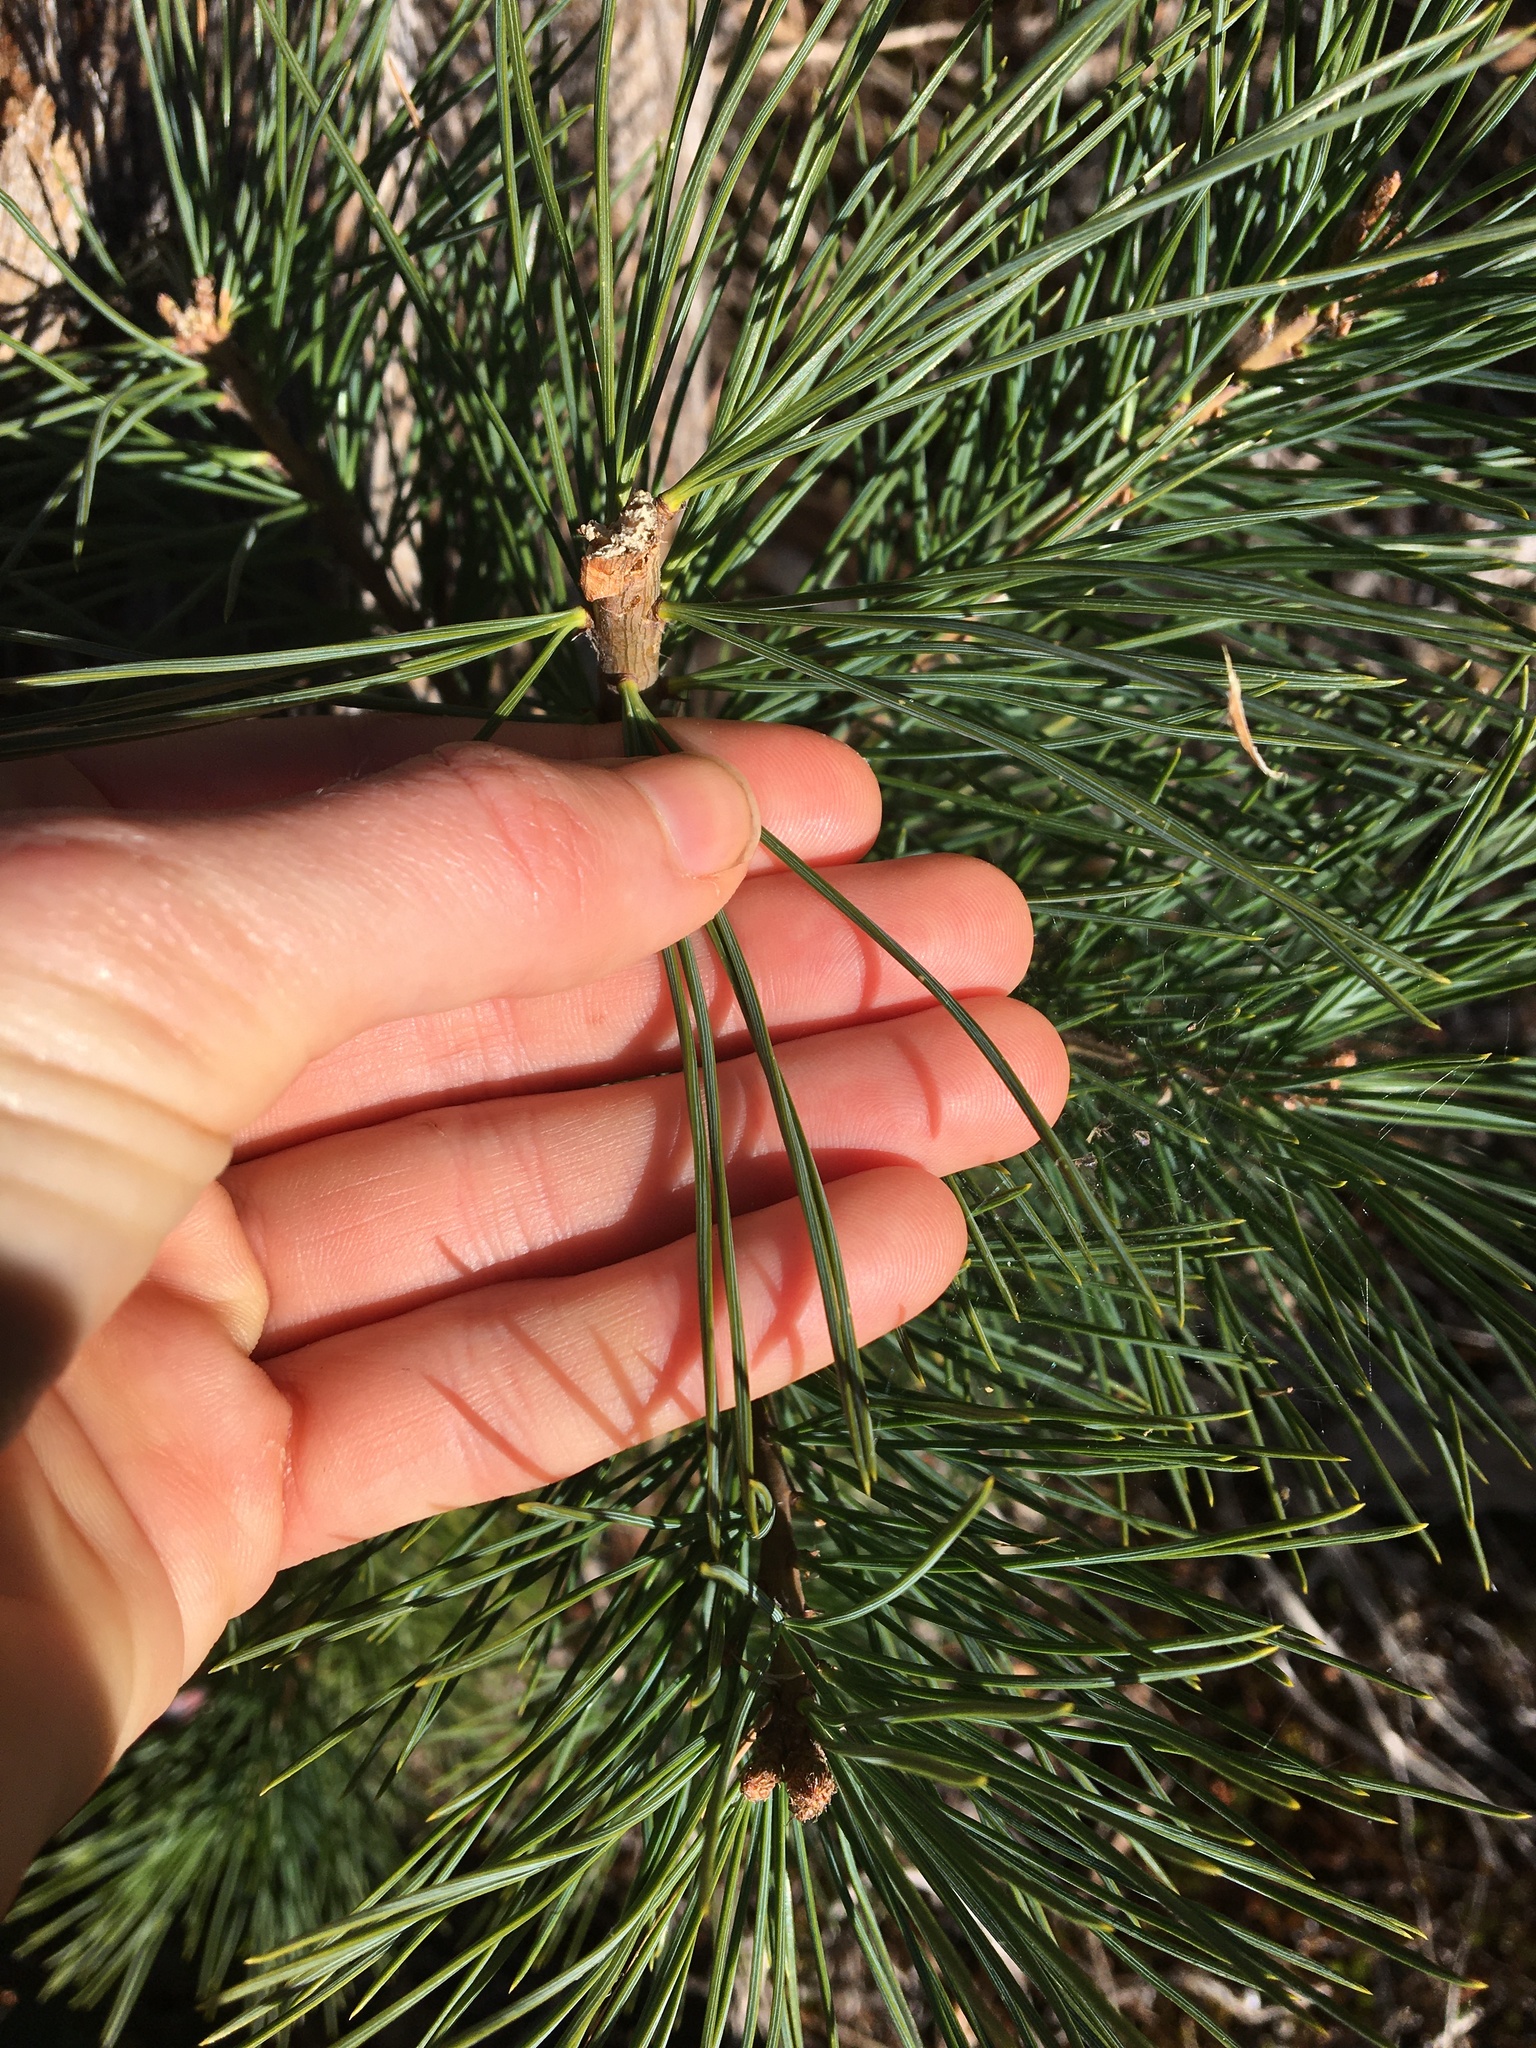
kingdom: Plantae
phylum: Tracheophyta
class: Pinopsida
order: Pinales
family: Pinaceae
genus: Pinus
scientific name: Pinus monticola
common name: Western white pine
